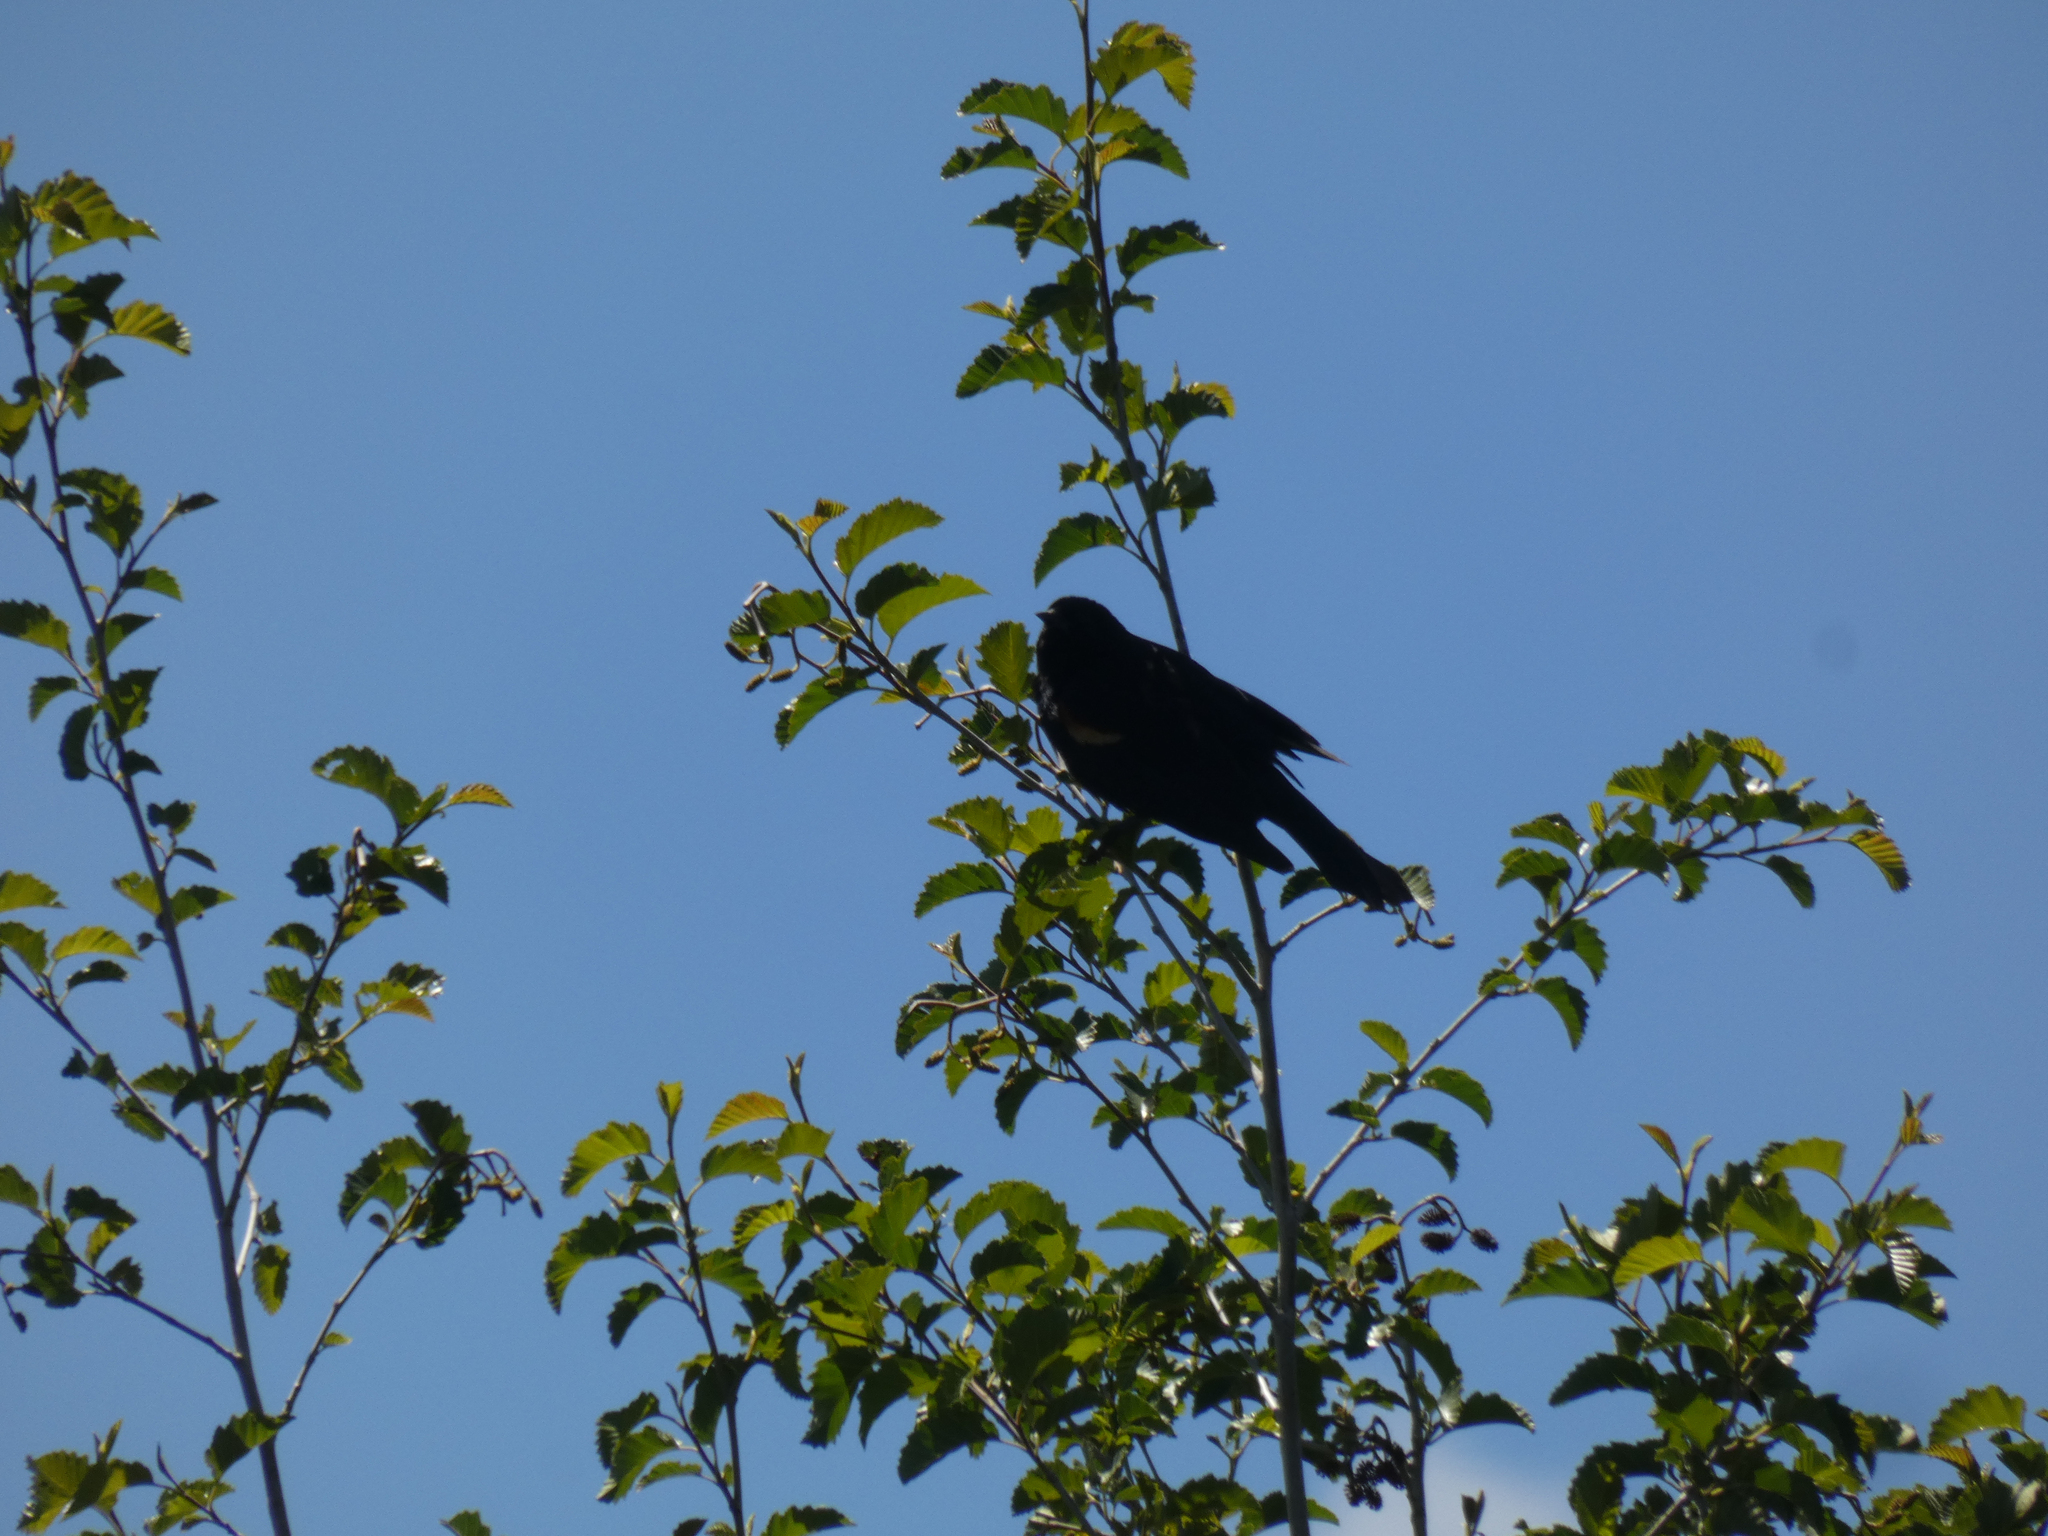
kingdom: Animalia
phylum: Chordata
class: Aves
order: Passeriformes
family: Icteridae
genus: Agelaius
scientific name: Agelaius phoeniceus
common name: Red-winged blackbird
